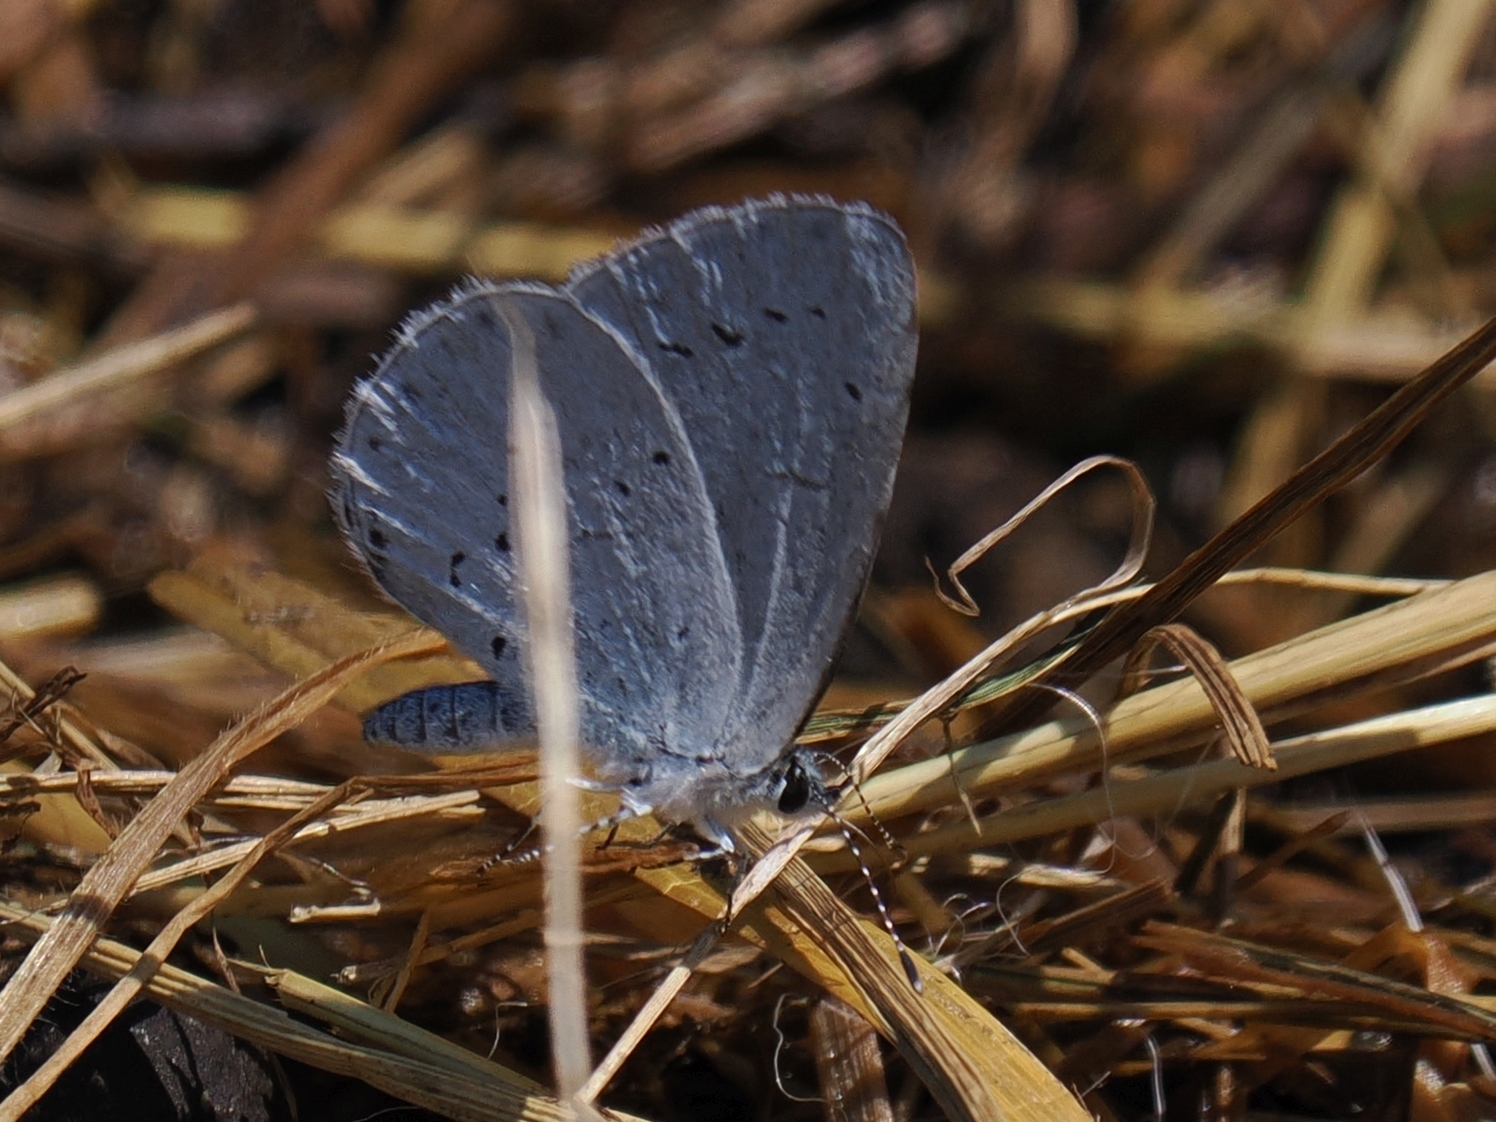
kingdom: Animalia
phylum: Arthropoda
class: Insecta
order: Lepidoptera
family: Lycaenidae
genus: Celastrina
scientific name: Celastrina argiolus
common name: Holly blue
